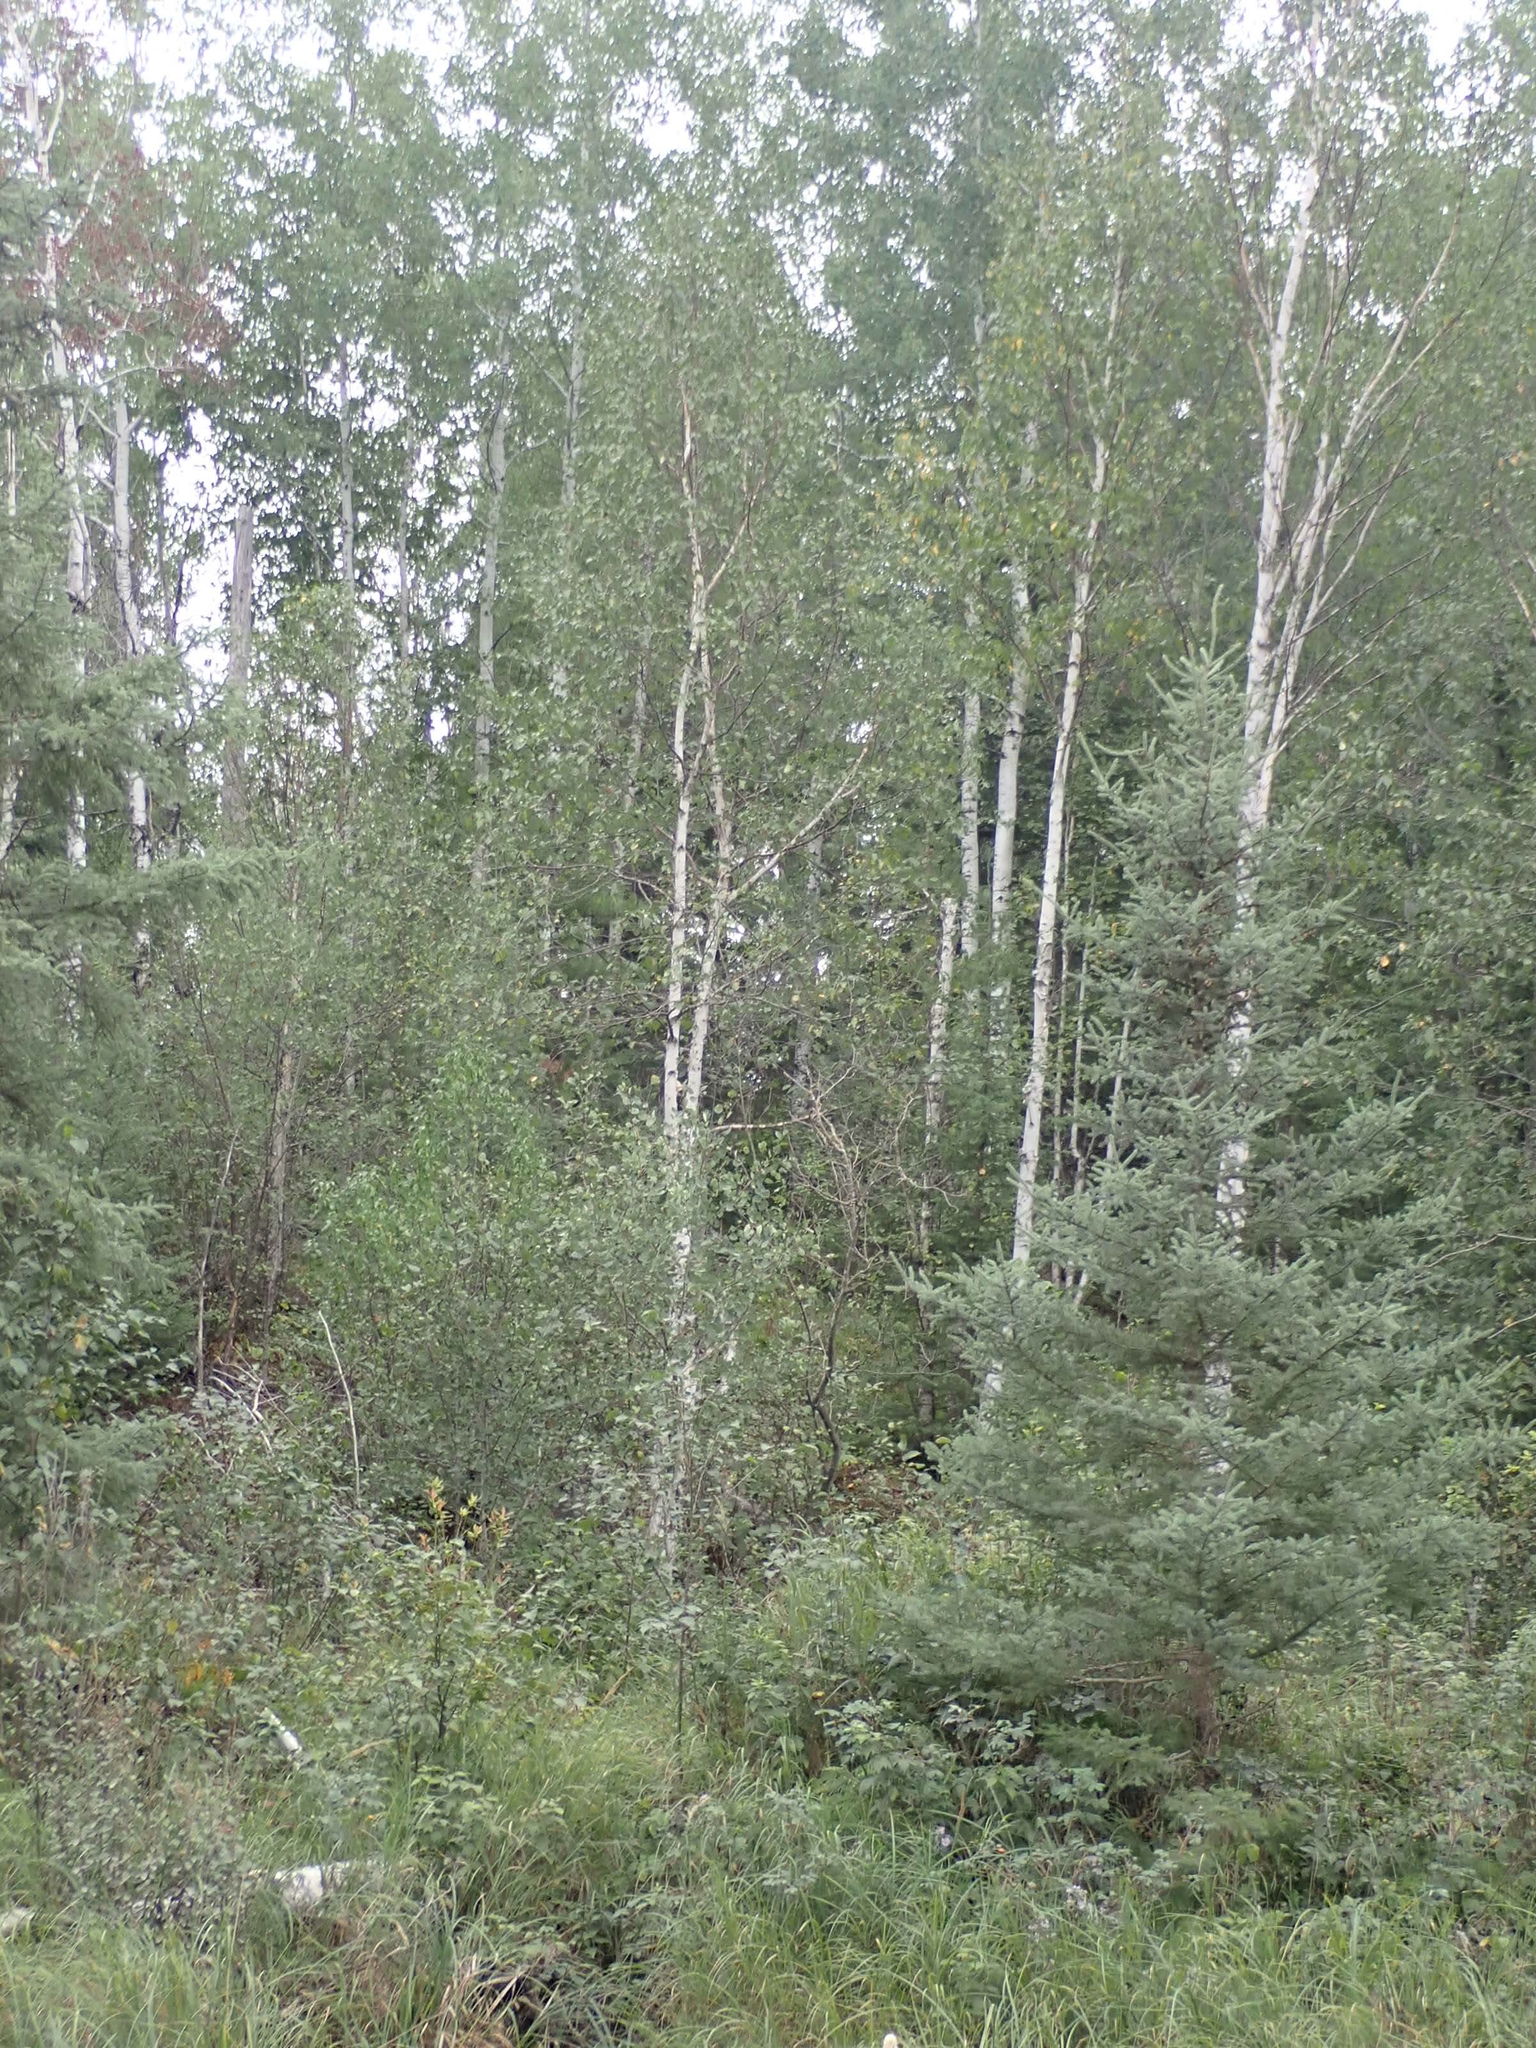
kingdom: Plantae
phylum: Tracheophyta
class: Magnoliopsida
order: Fagales
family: Betulaceae
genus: Betula
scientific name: Betula papyrifera
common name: Paper birch
